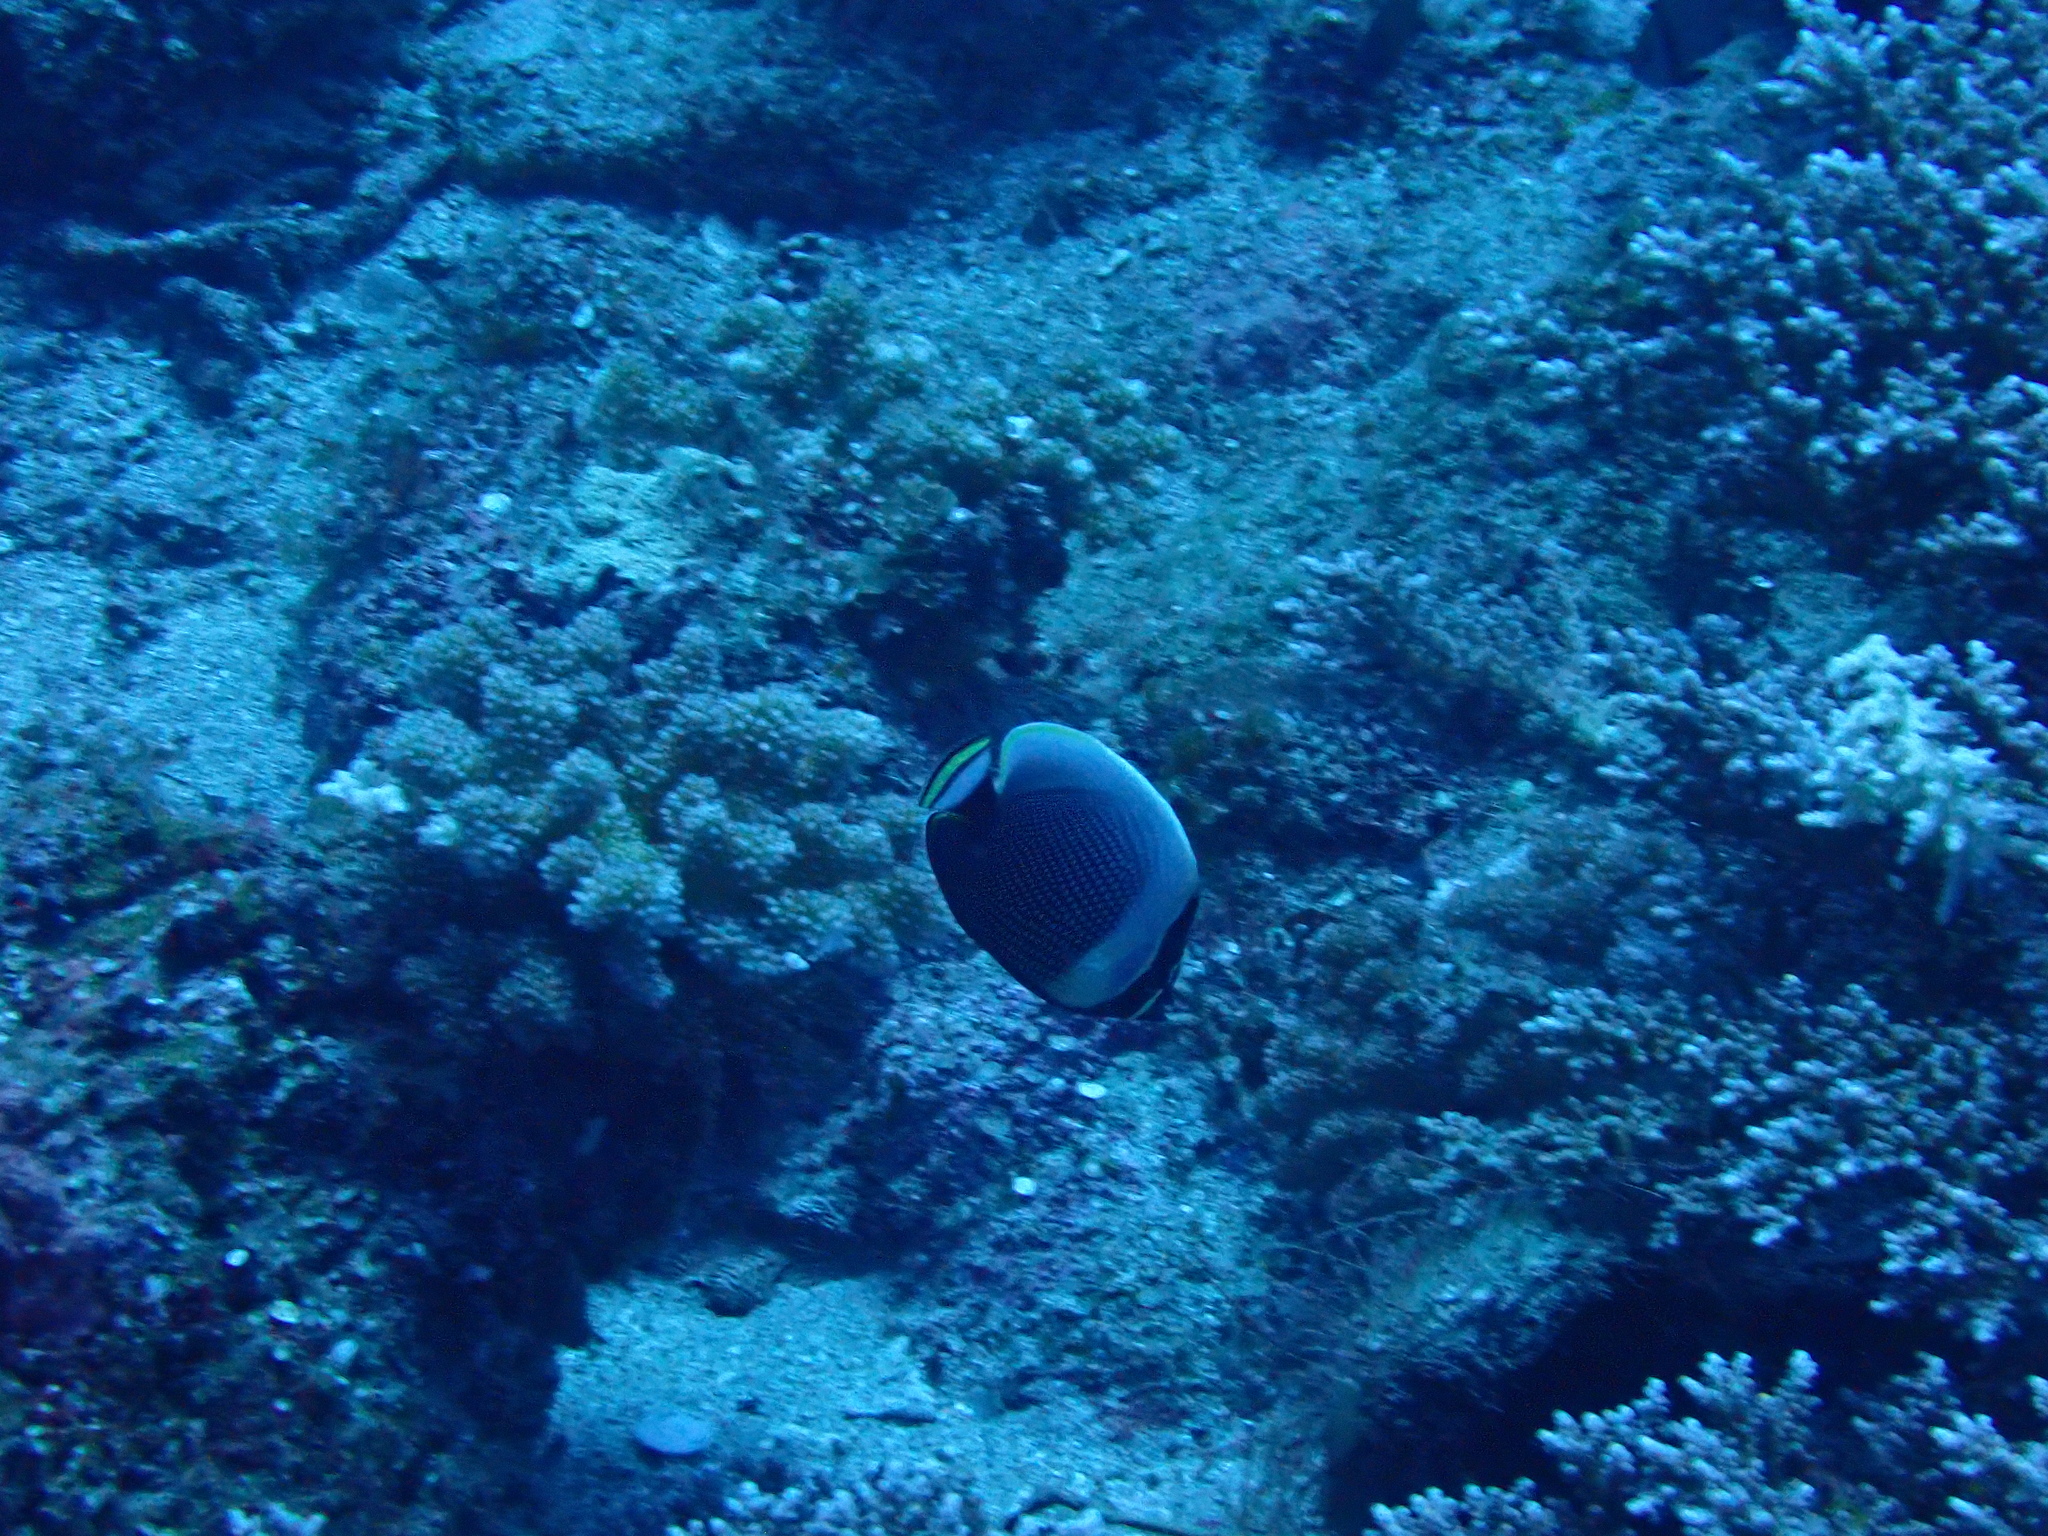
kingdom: Animalia
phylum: Chordata
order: Perciformes
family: Chaetodontidae
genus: Chaetodon
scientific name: Chaetodon reticulatus
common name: Reticulated butterflyfish
